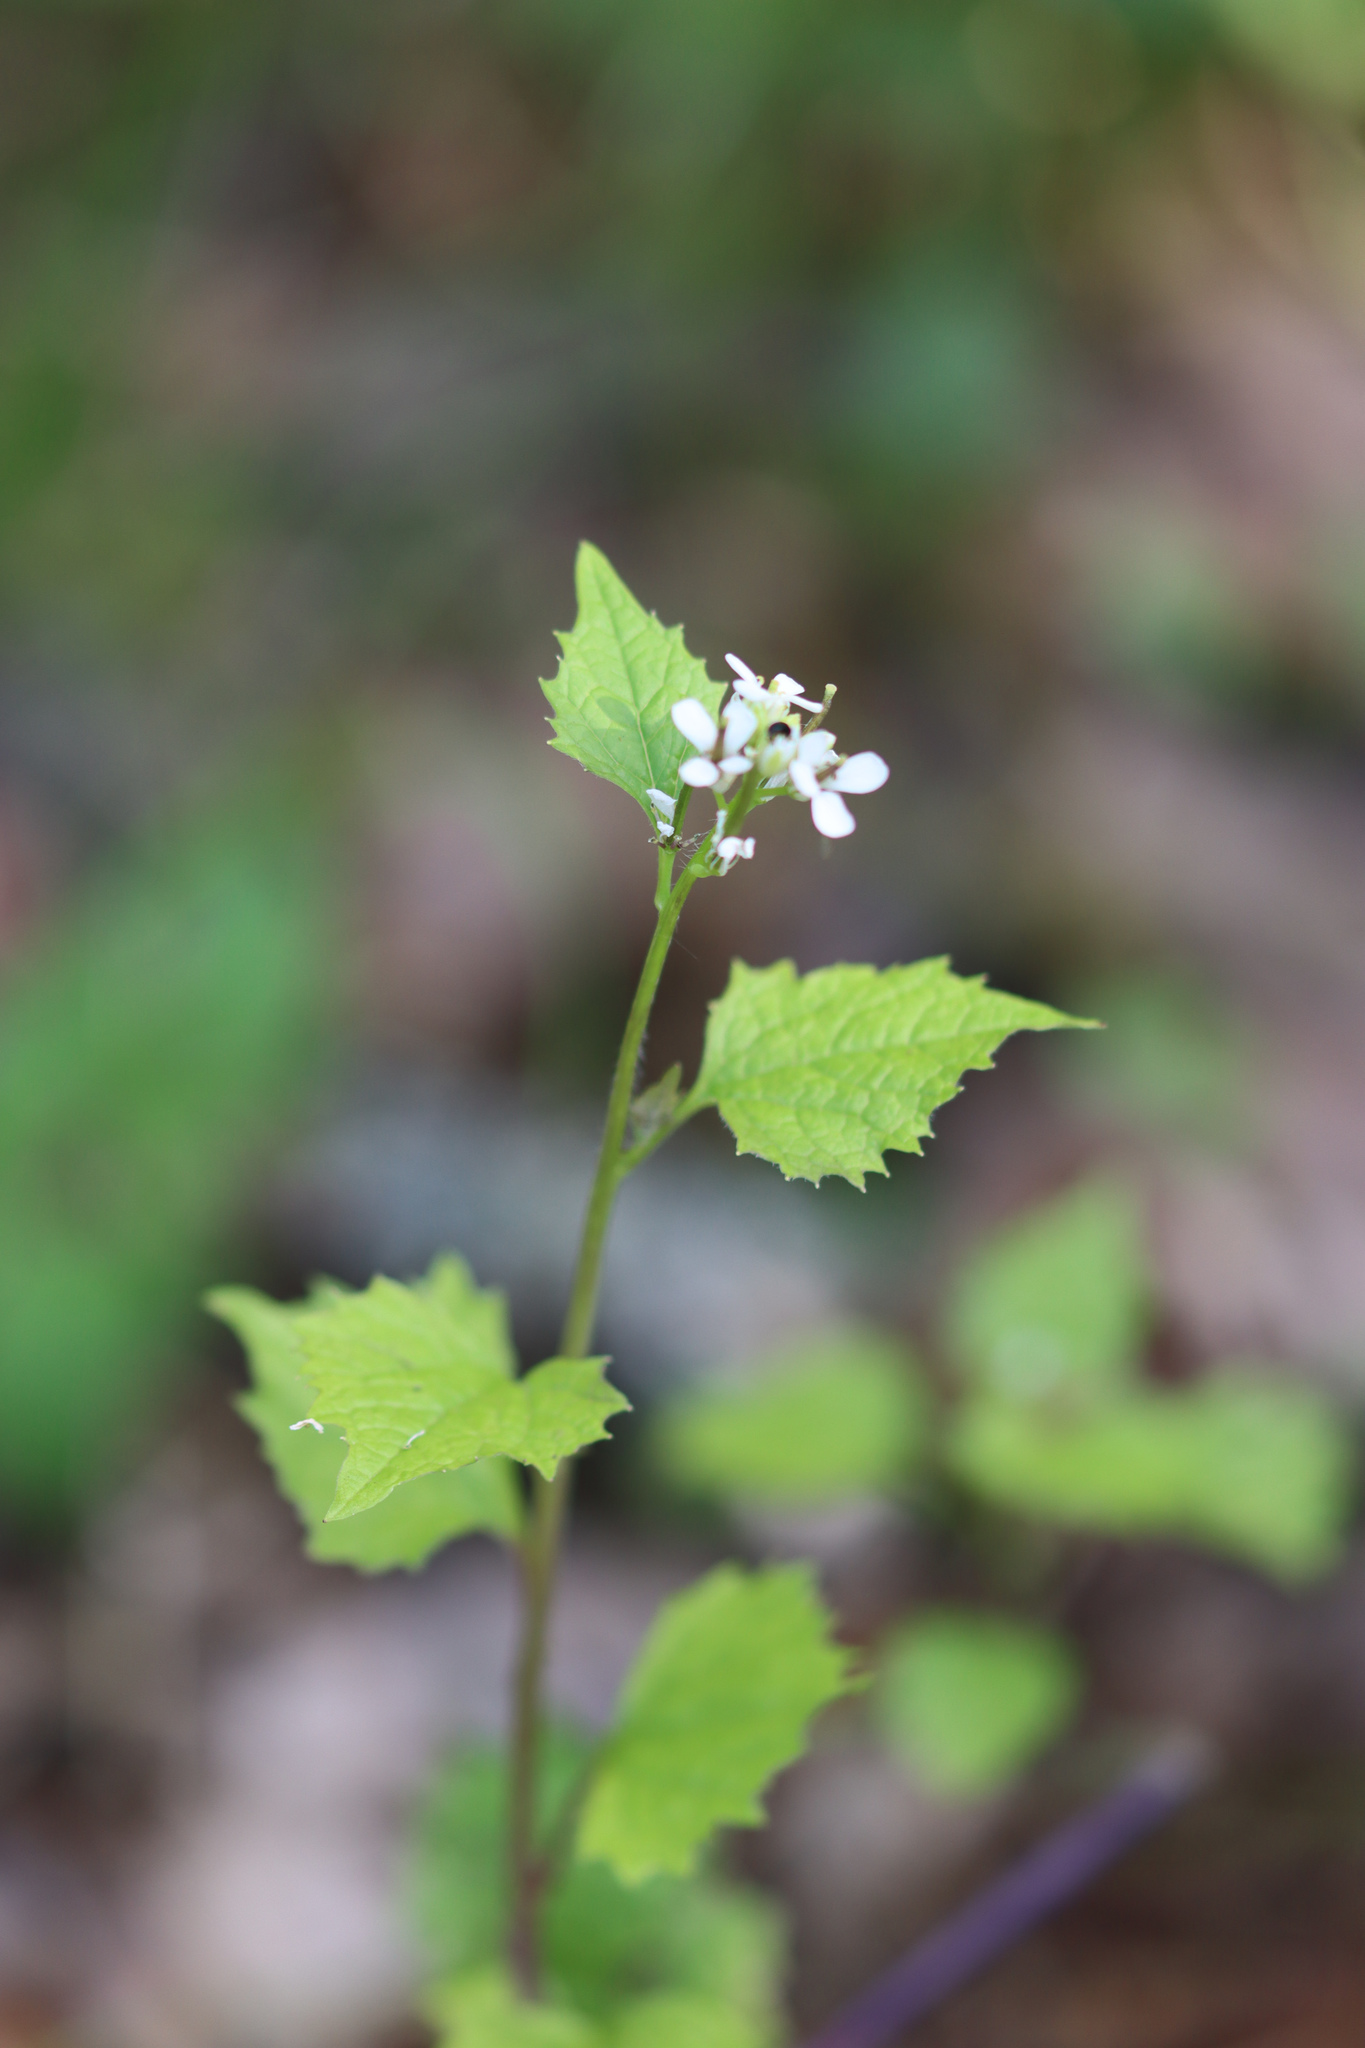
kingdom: Plantae
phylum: Tracheophyta
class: Magnoliopsida
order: Brassicales
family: Brassicaceae
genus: Alliaria
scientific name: Alliaria petiolata
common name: Garlic mustard
